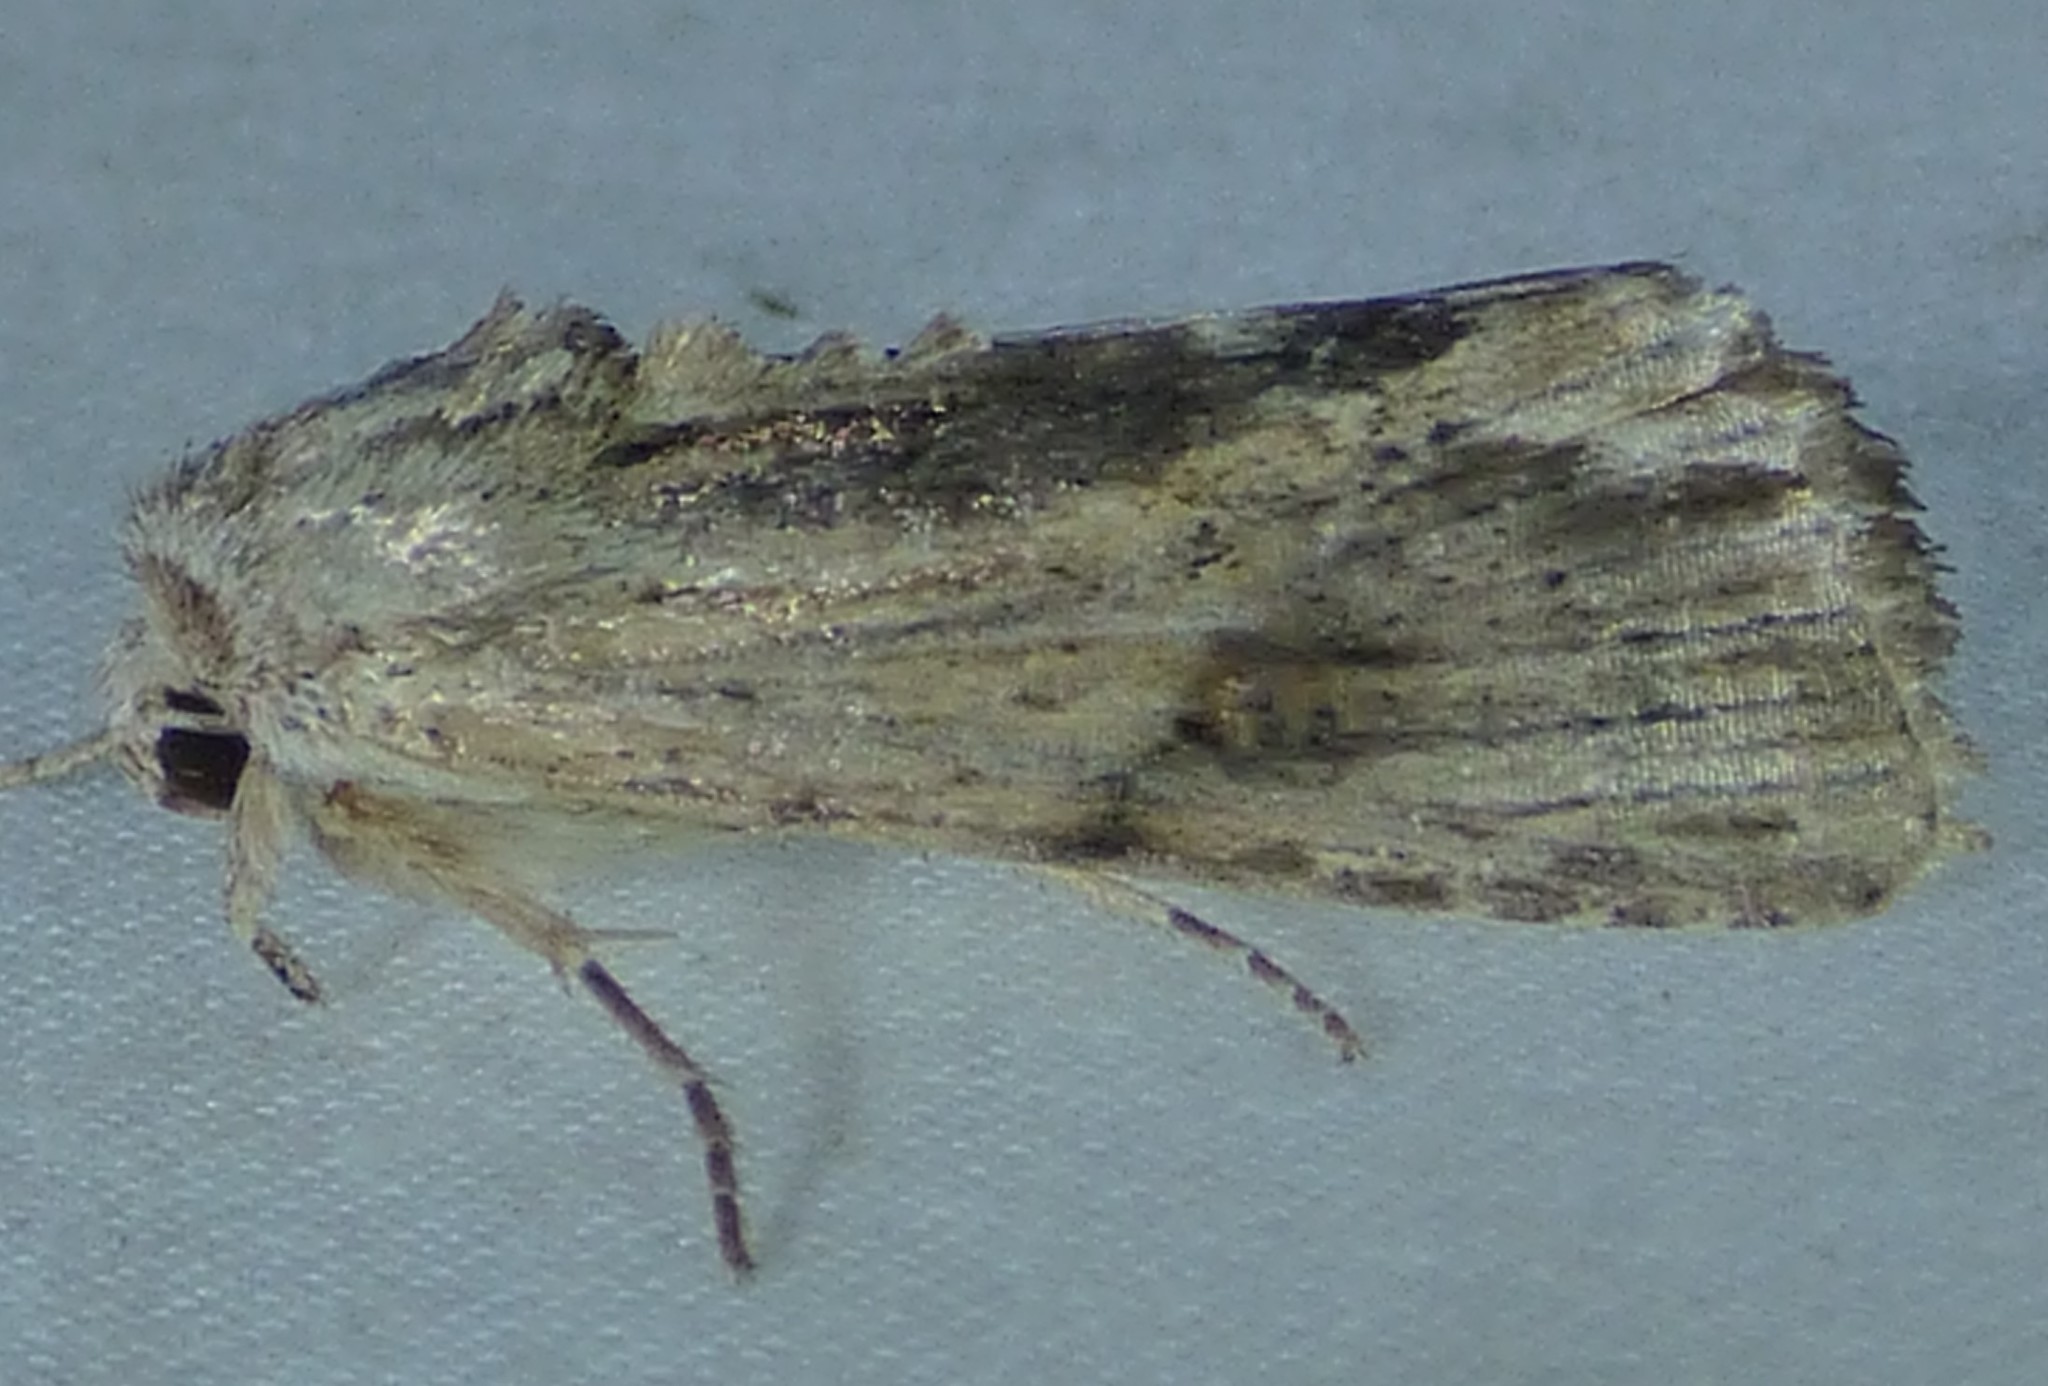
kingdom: Animalia
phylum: Arthropoda
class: Insecta
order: Lepidoptera
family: Noctuidae
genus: Spodoptera
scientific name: Spodoptera eridania
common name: Southern army worm
